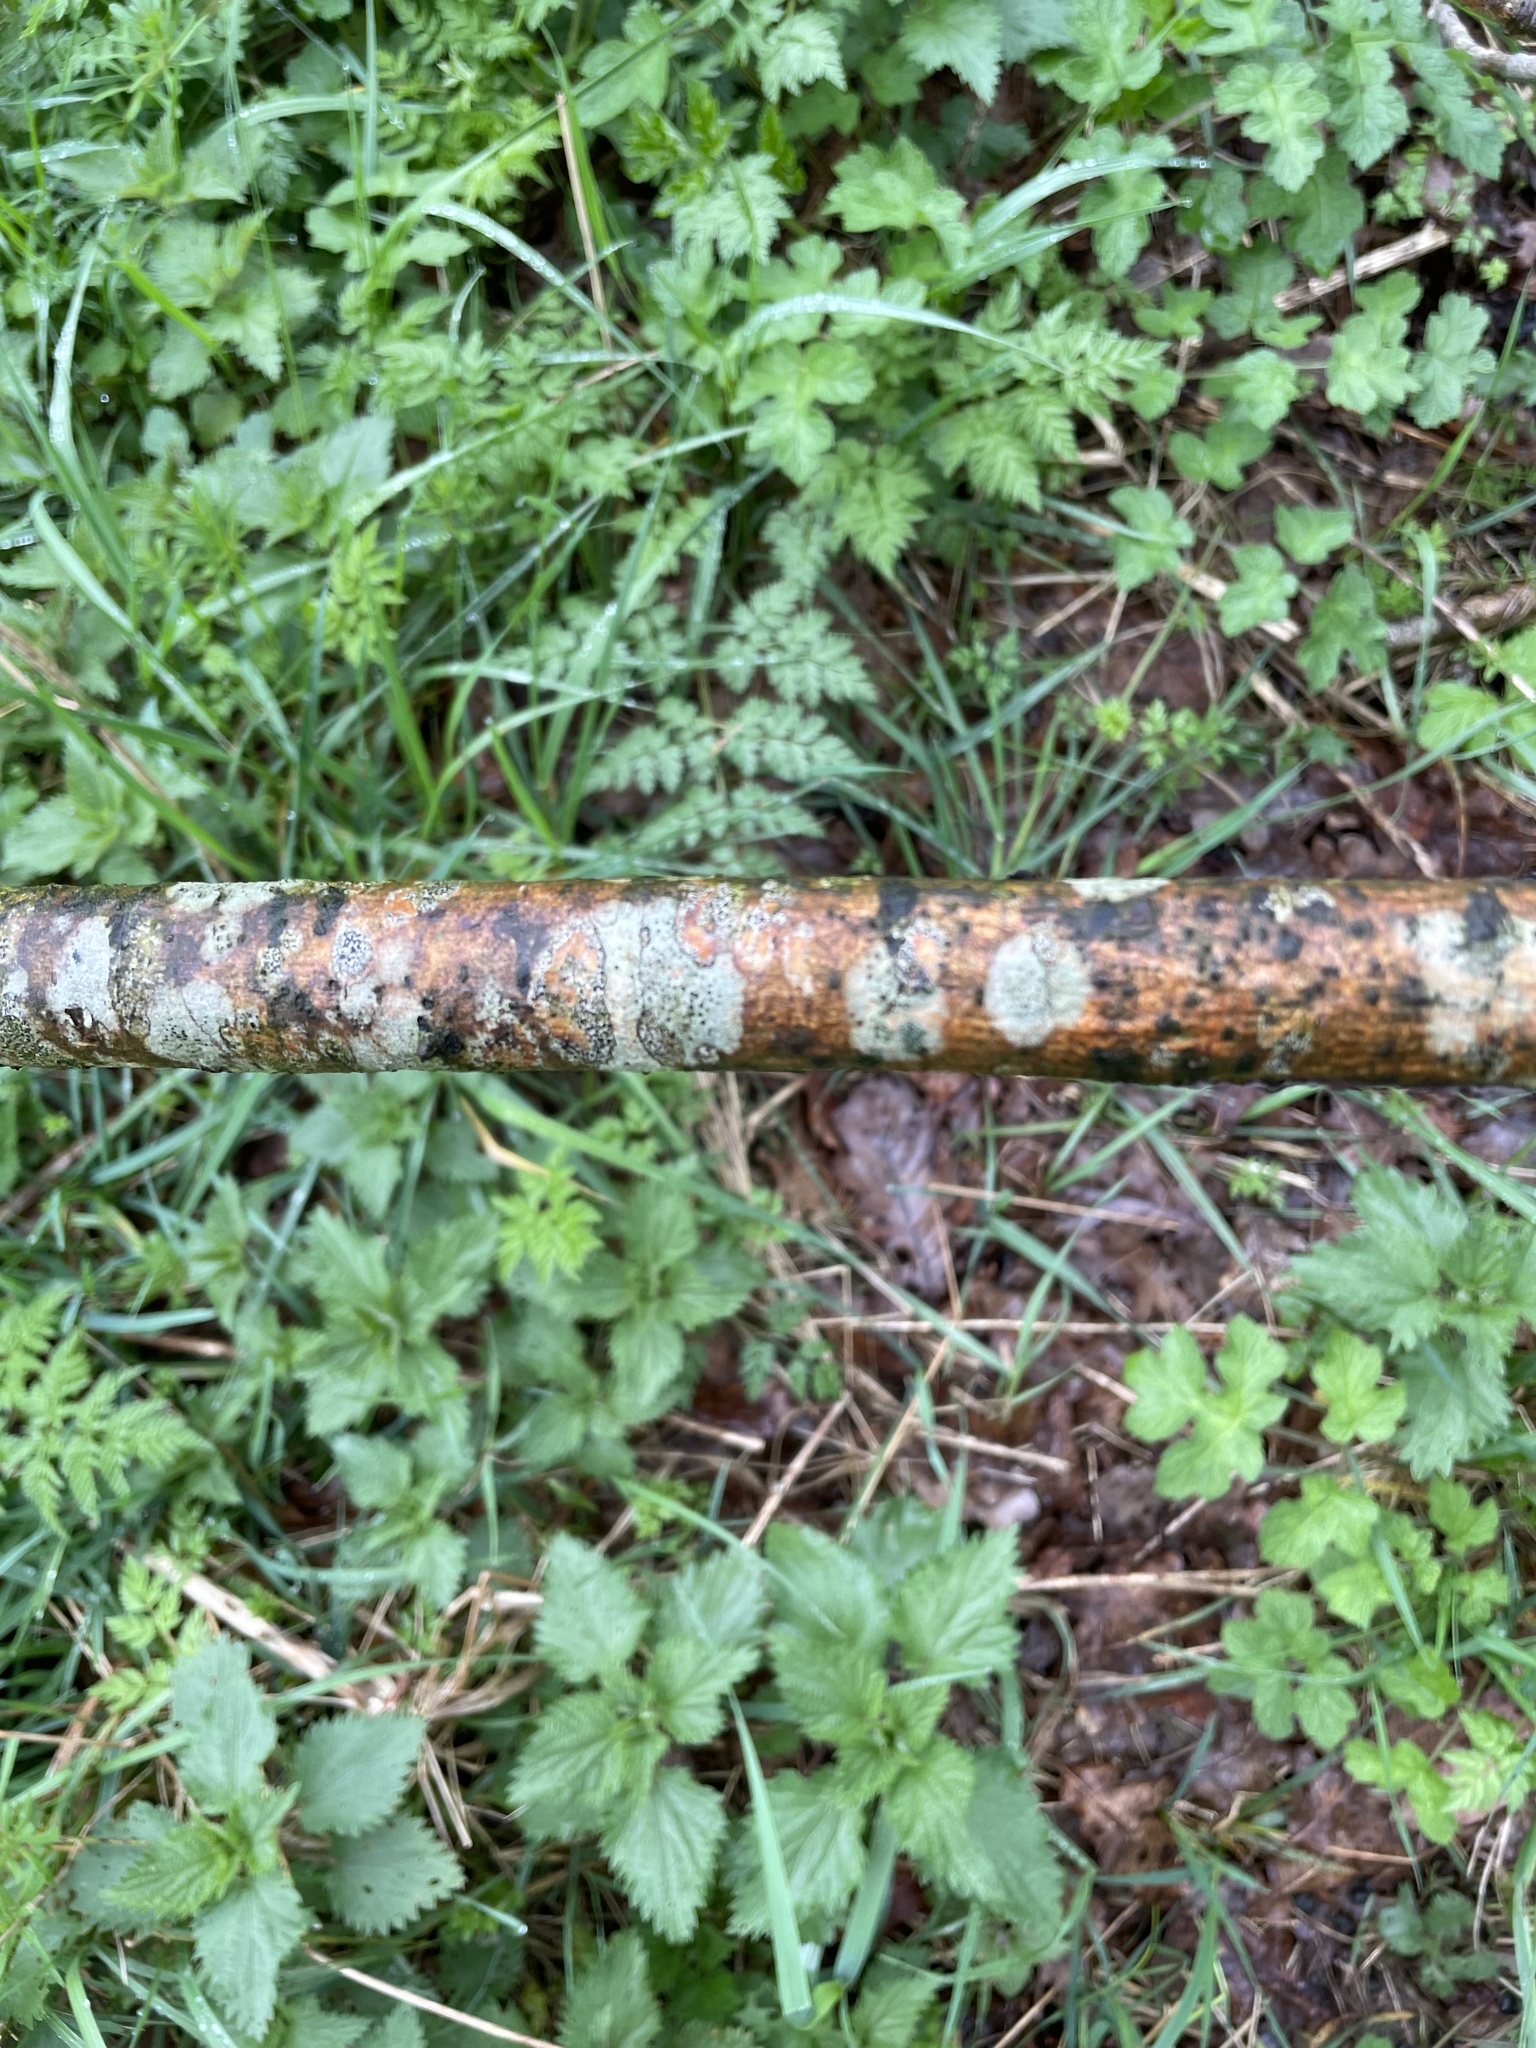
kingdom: Fungi
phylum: Ascomycota
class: Arthoniomycetes
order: Arthoniales
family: Arthoniaceae
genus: Arthonia
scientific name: Arthonia radiata
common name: Asterisk lichen
